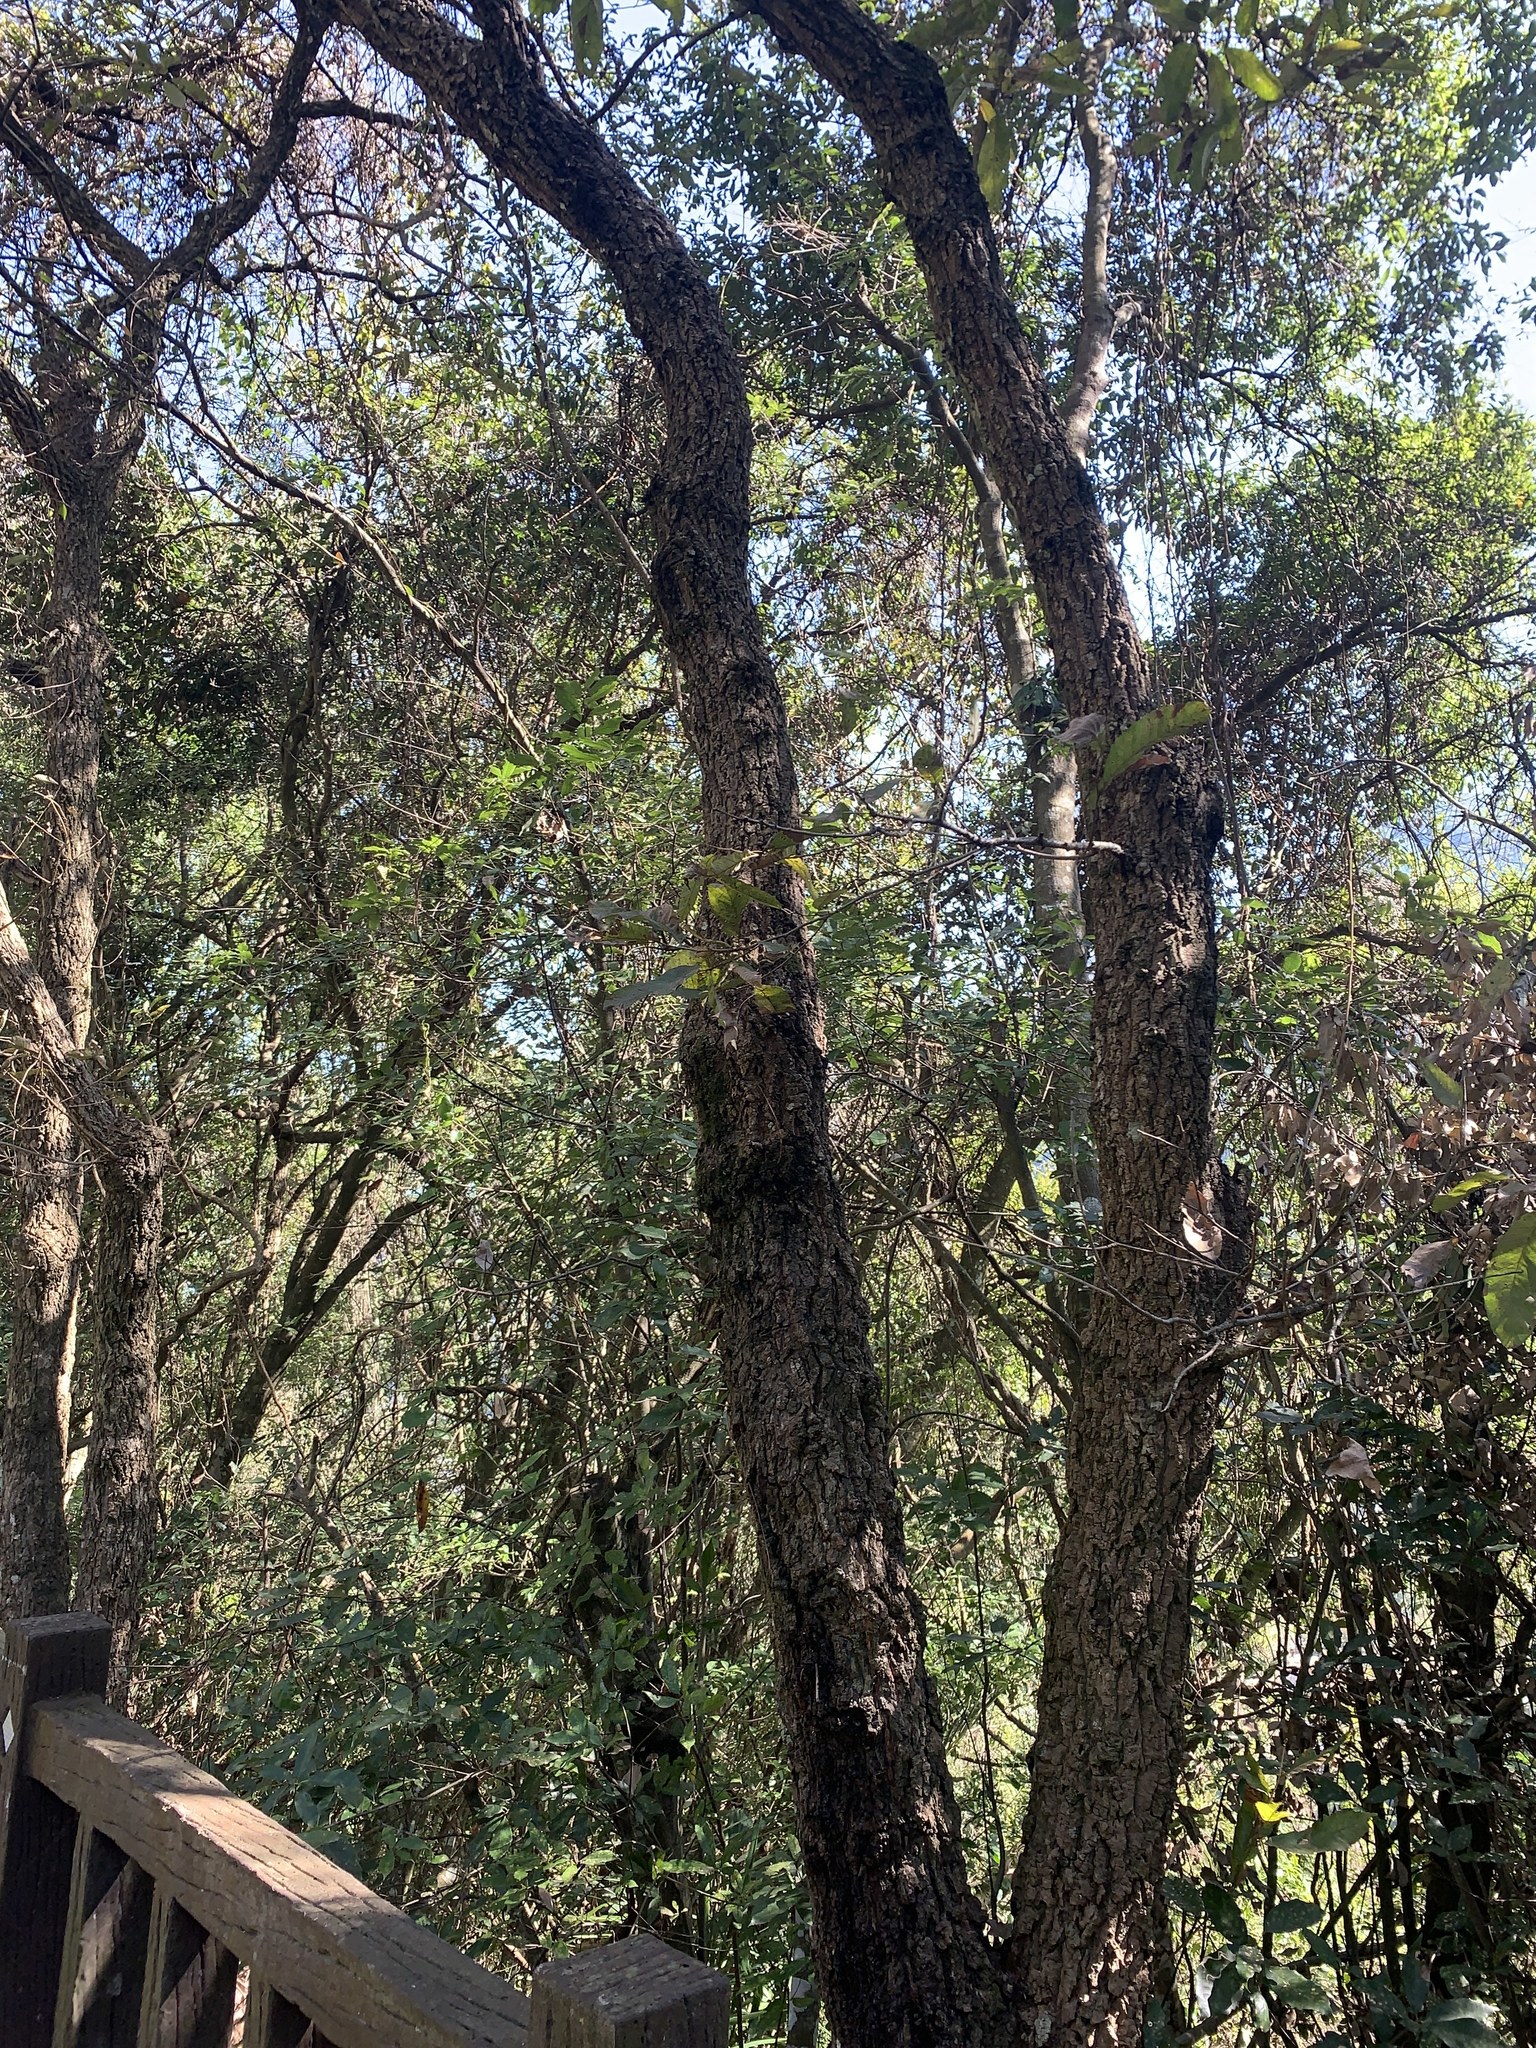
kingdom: Plantae
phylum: Tracheophyta
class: Magnoliopsida
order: Fagales
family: Fagaceae
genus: Quercus
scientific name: Quercus variabilis
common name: Chinese cork oak
